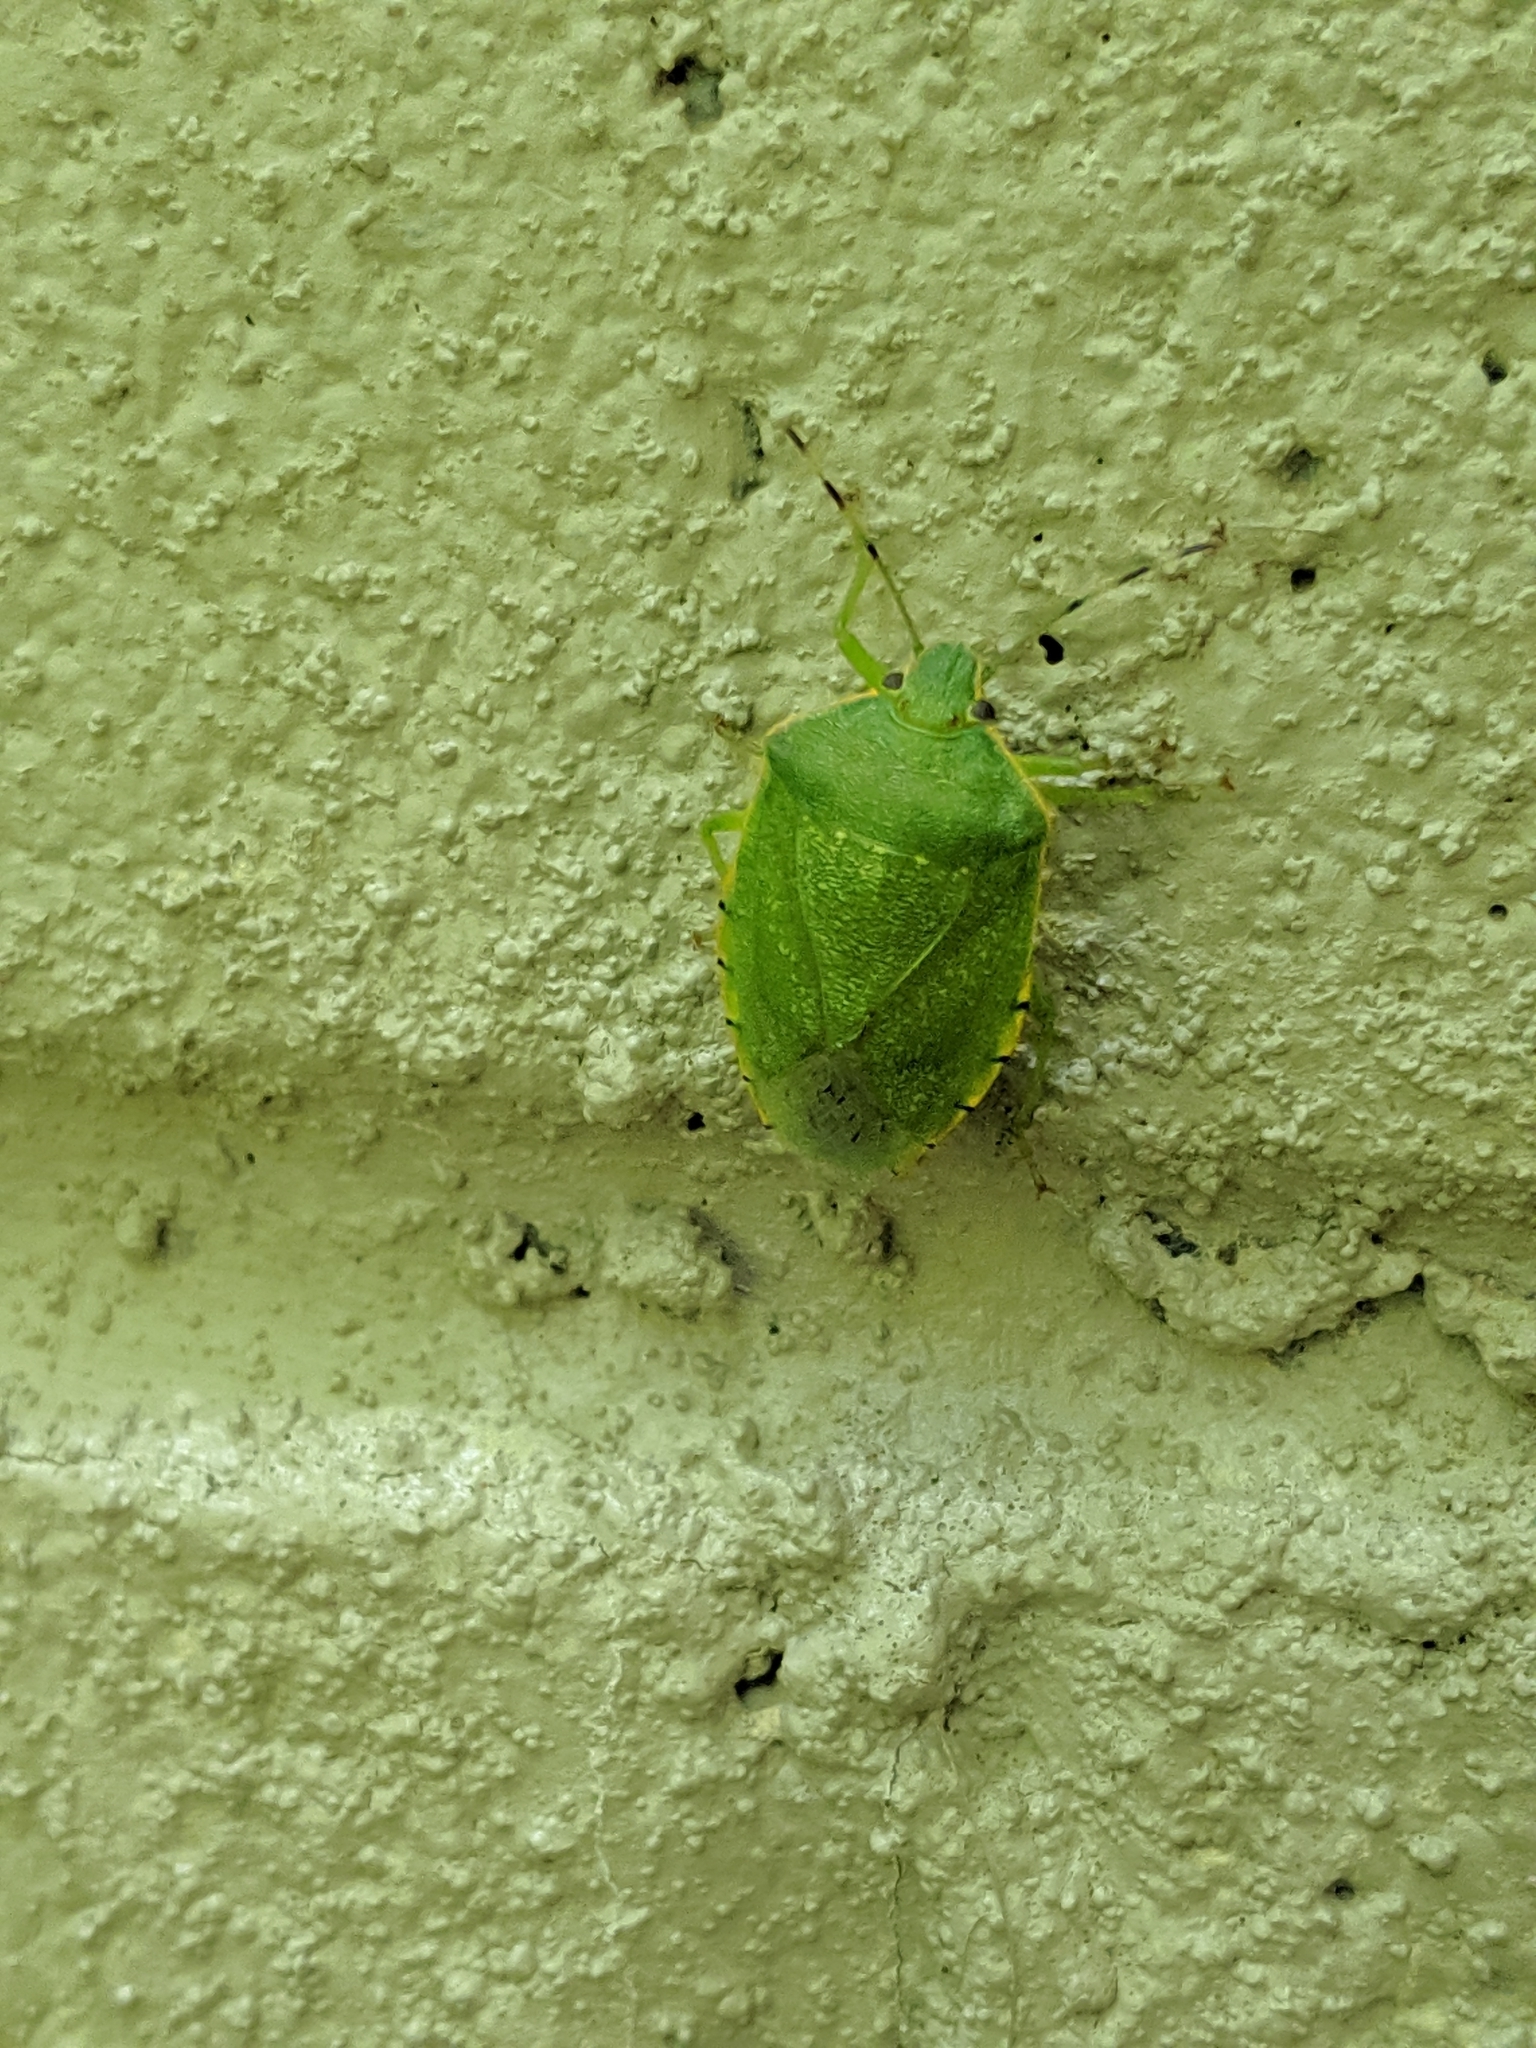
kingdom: Animalia
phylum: Arthropoda
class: Insecta
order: Hemiptera
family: Pentatomidae
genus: Chinavia
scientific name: Chinavia hilaris
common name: Green stink bug
